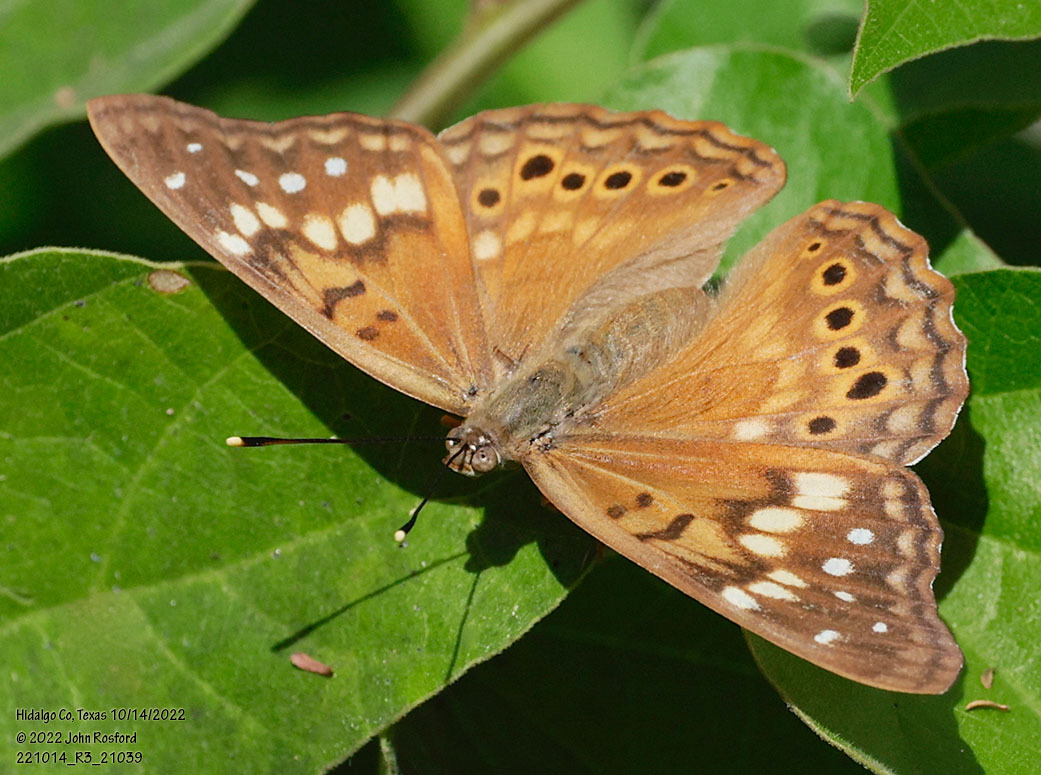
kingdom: Animalia
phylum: Arthropoda
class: Insecta
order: Lepidoptera
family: Nymphalidae
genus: Asterocampa
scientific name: Asterocampa clyton
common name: Tawny emperor
